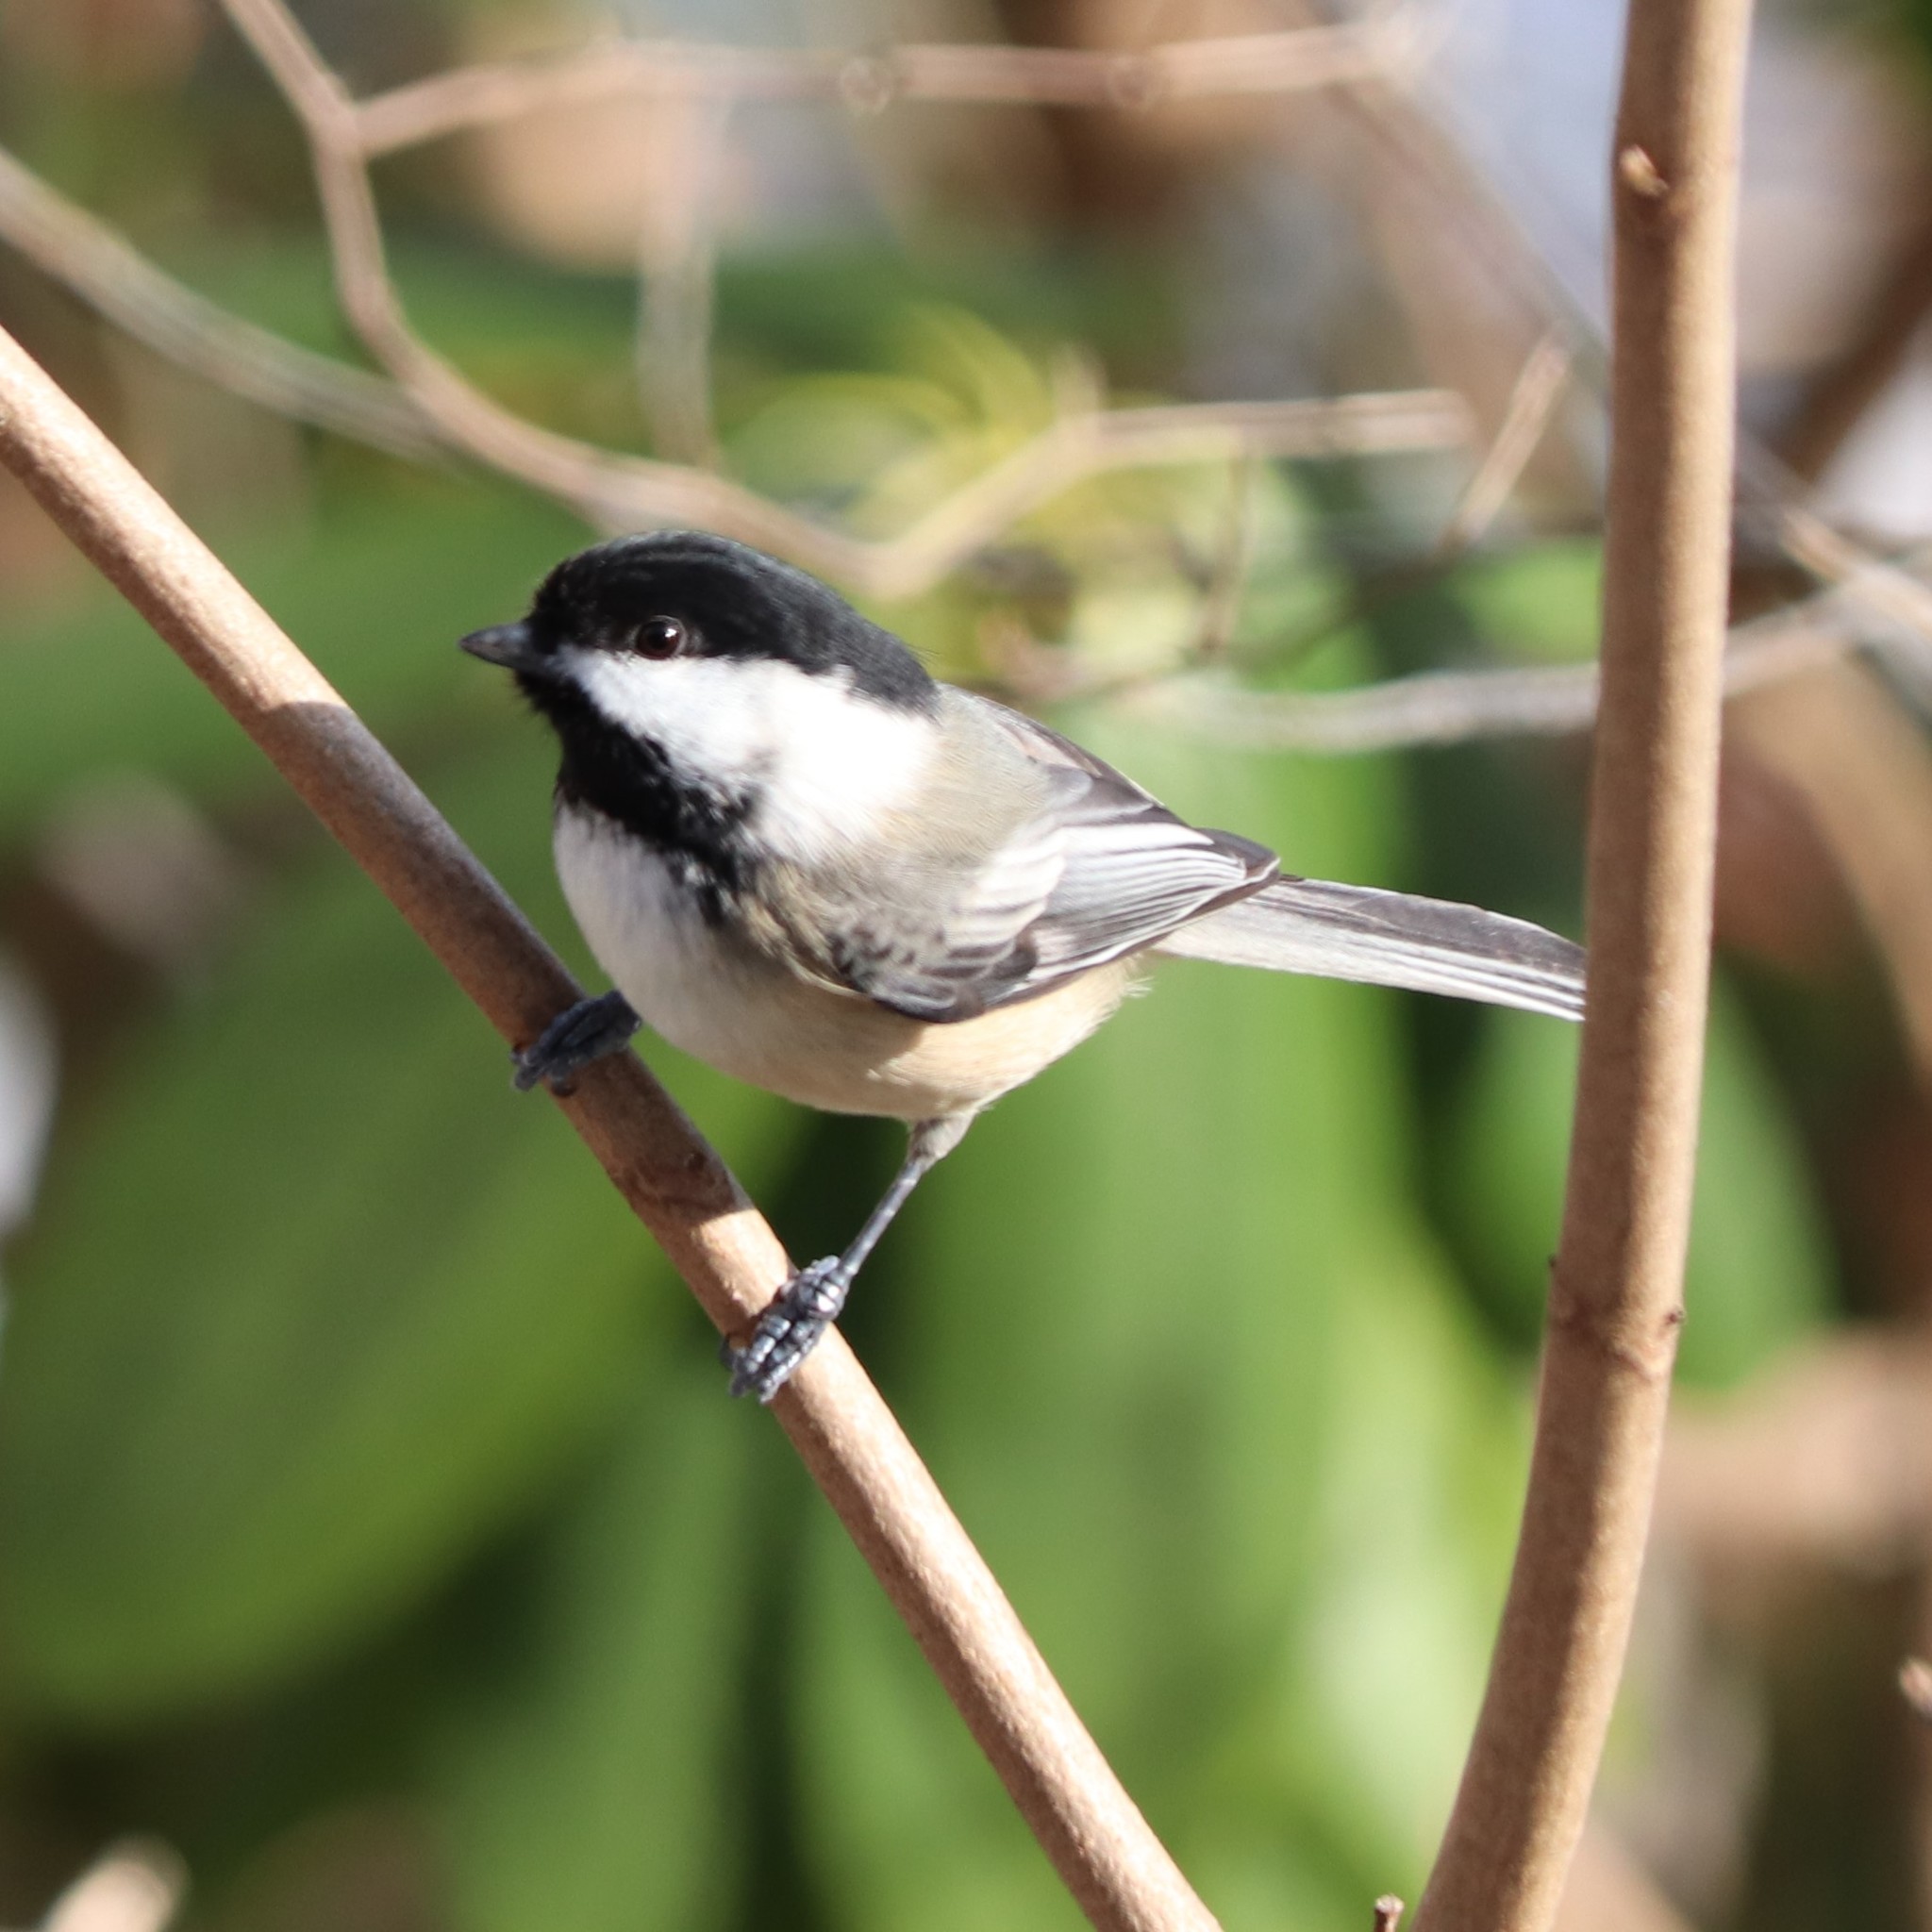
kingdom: Animalia
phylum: Chordata
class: Aves
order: Passeriformes
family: Paridae
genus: Poecile
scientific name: Poecile atricapillus
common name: Black-capped chickadee
